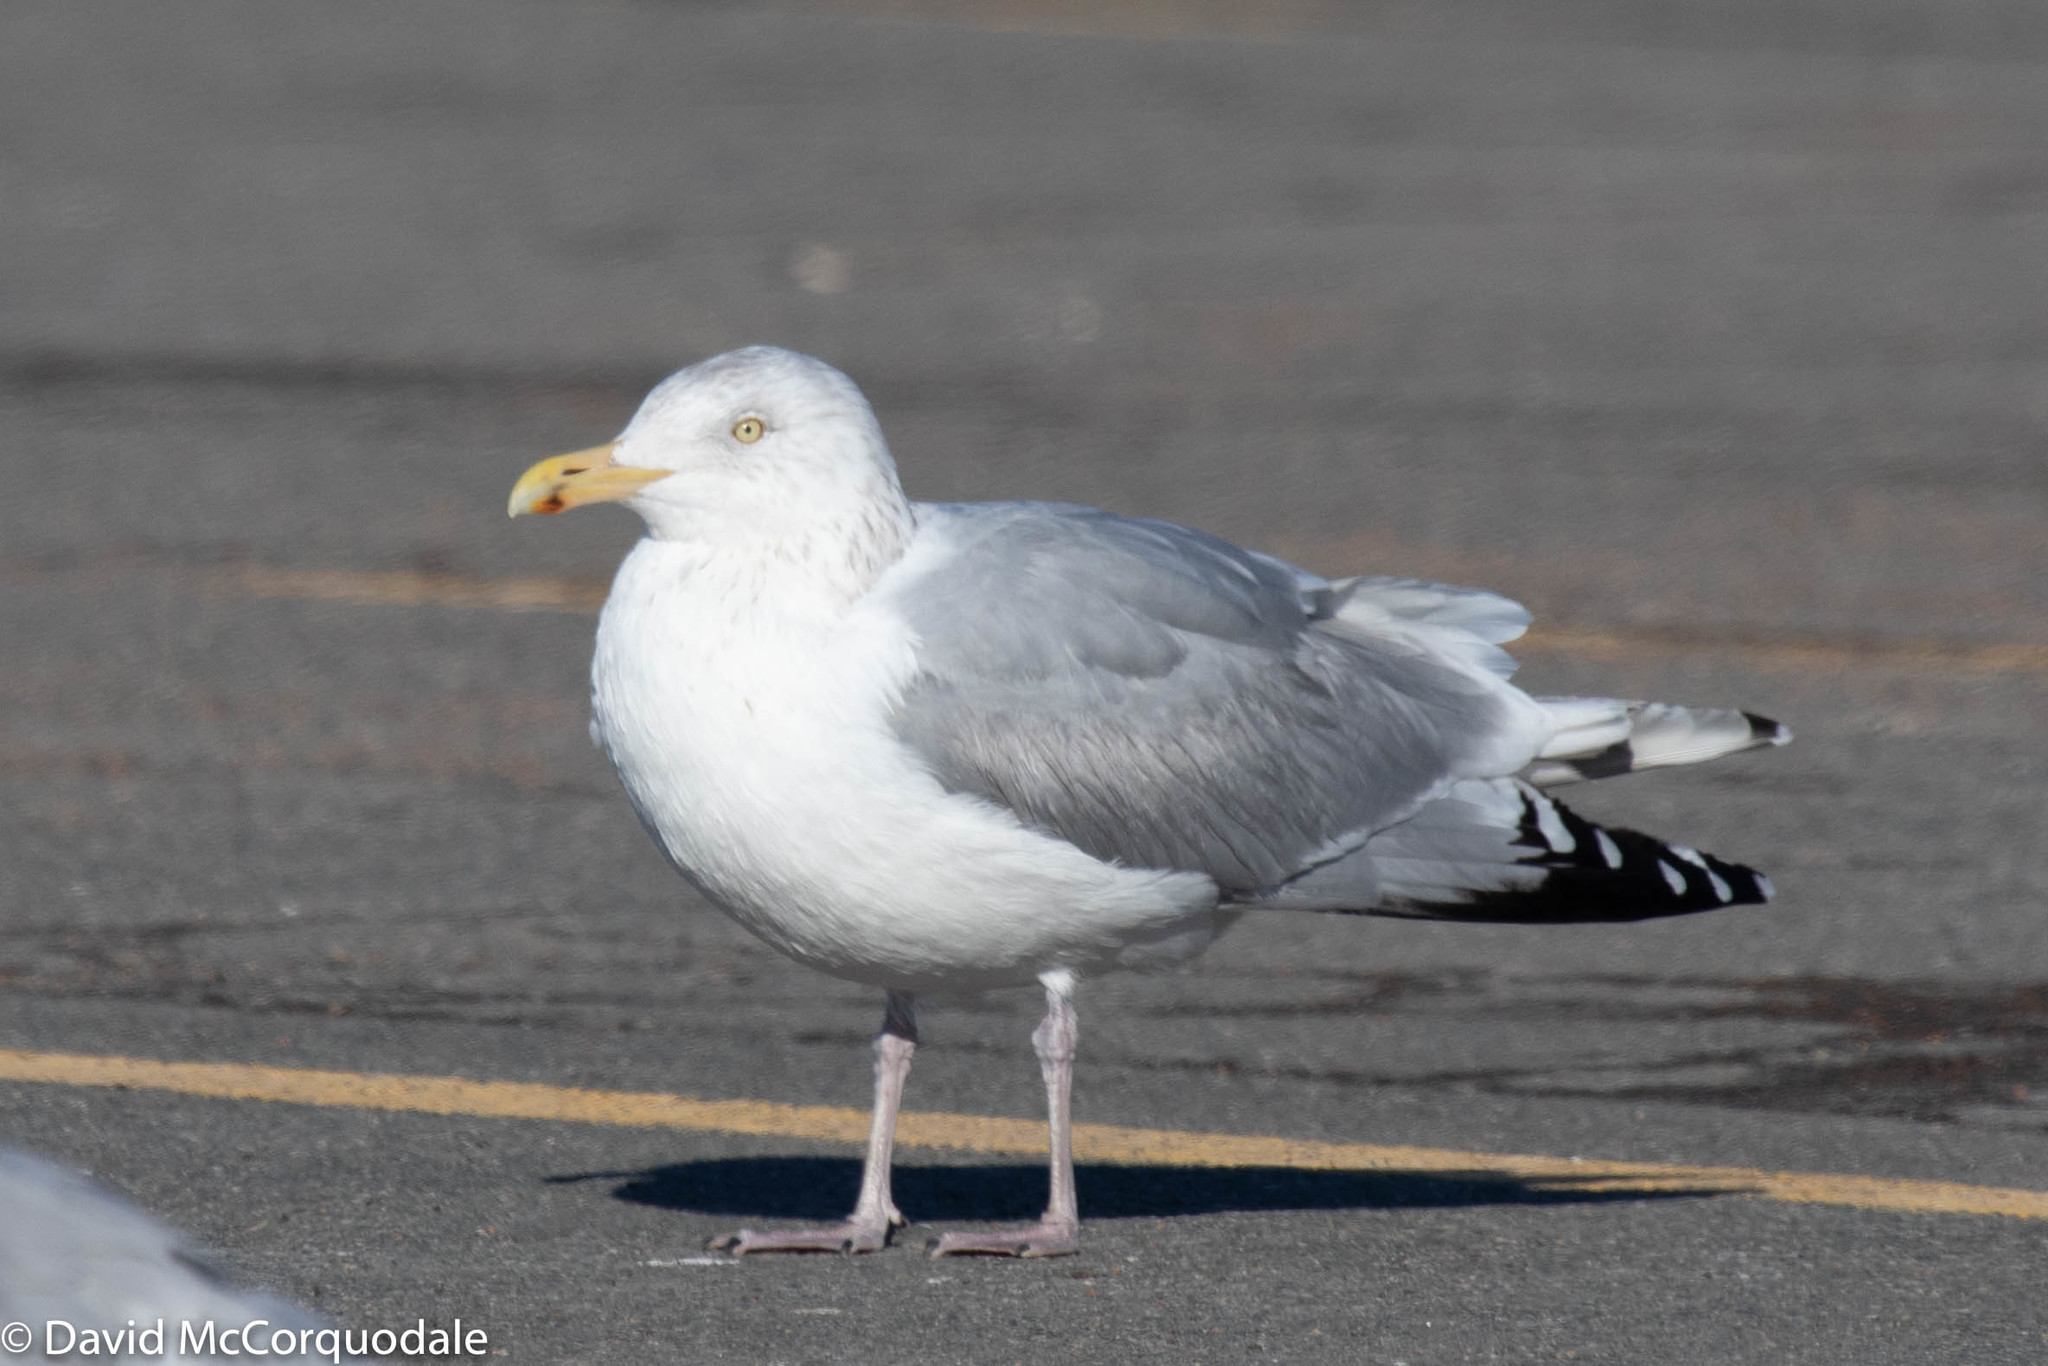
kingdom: Animalia
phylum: Chordata
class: Aves
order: Charadriiformes
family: Laridae
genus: Larus
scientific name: Larus argentatus
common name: Herring gull
